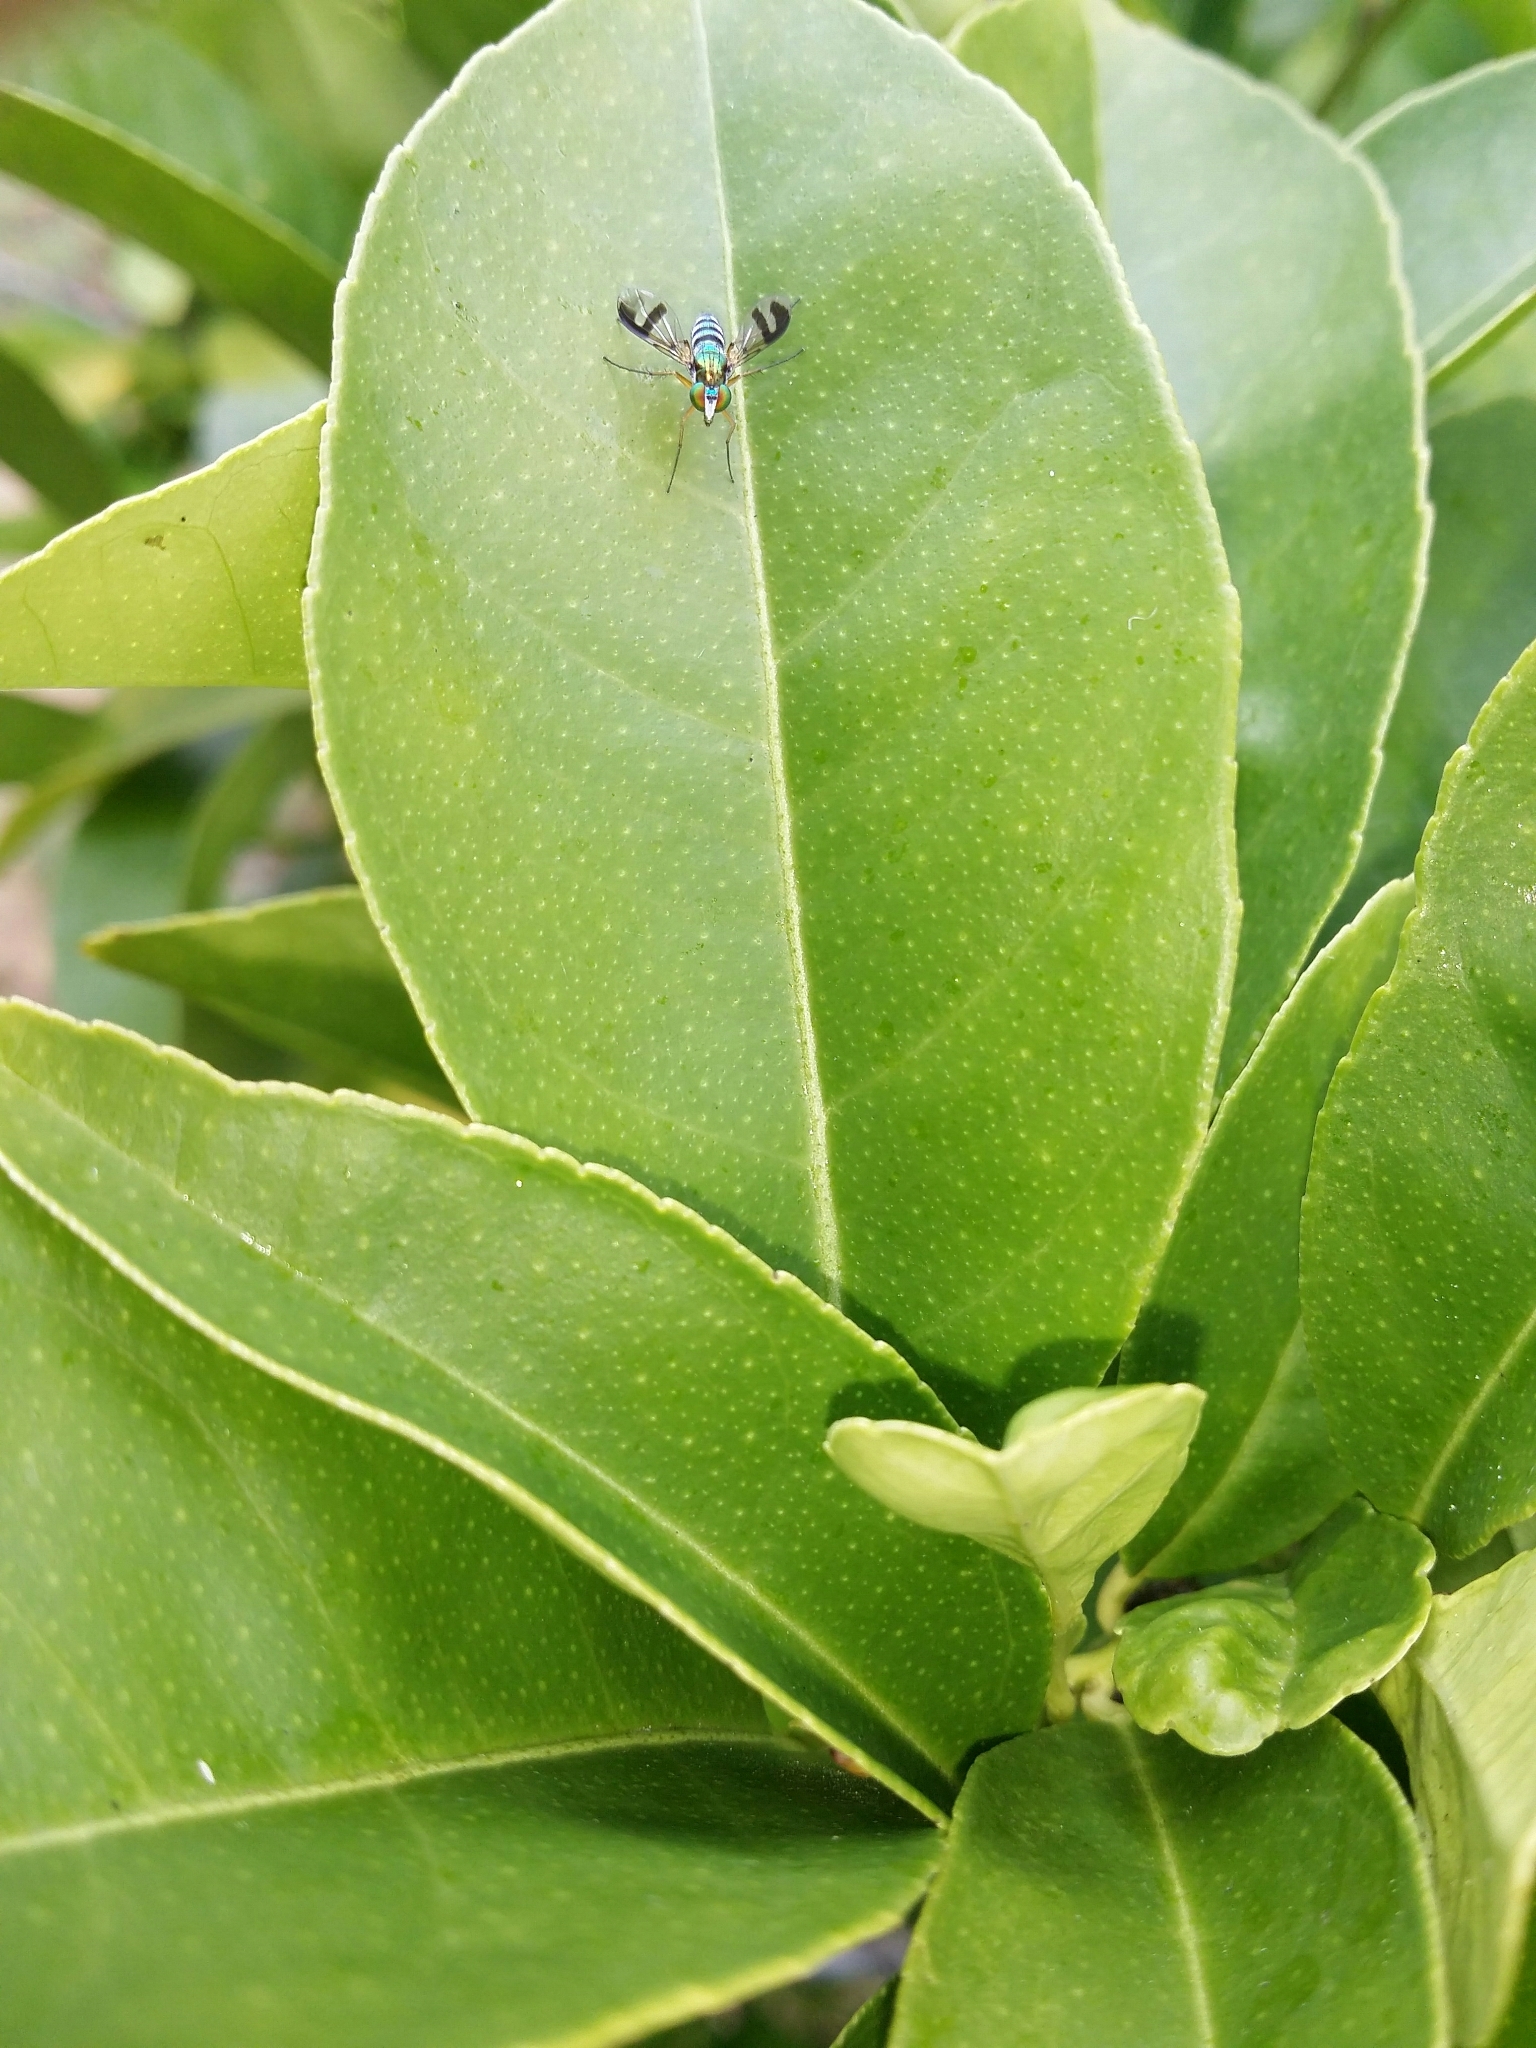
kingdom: Animalia
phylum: Arthropoda
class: Insecta
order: Diptera
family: Dolichopodidae
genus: Austrosciapus
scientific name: Austrosciapus connexus
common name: Green long-legged fly
